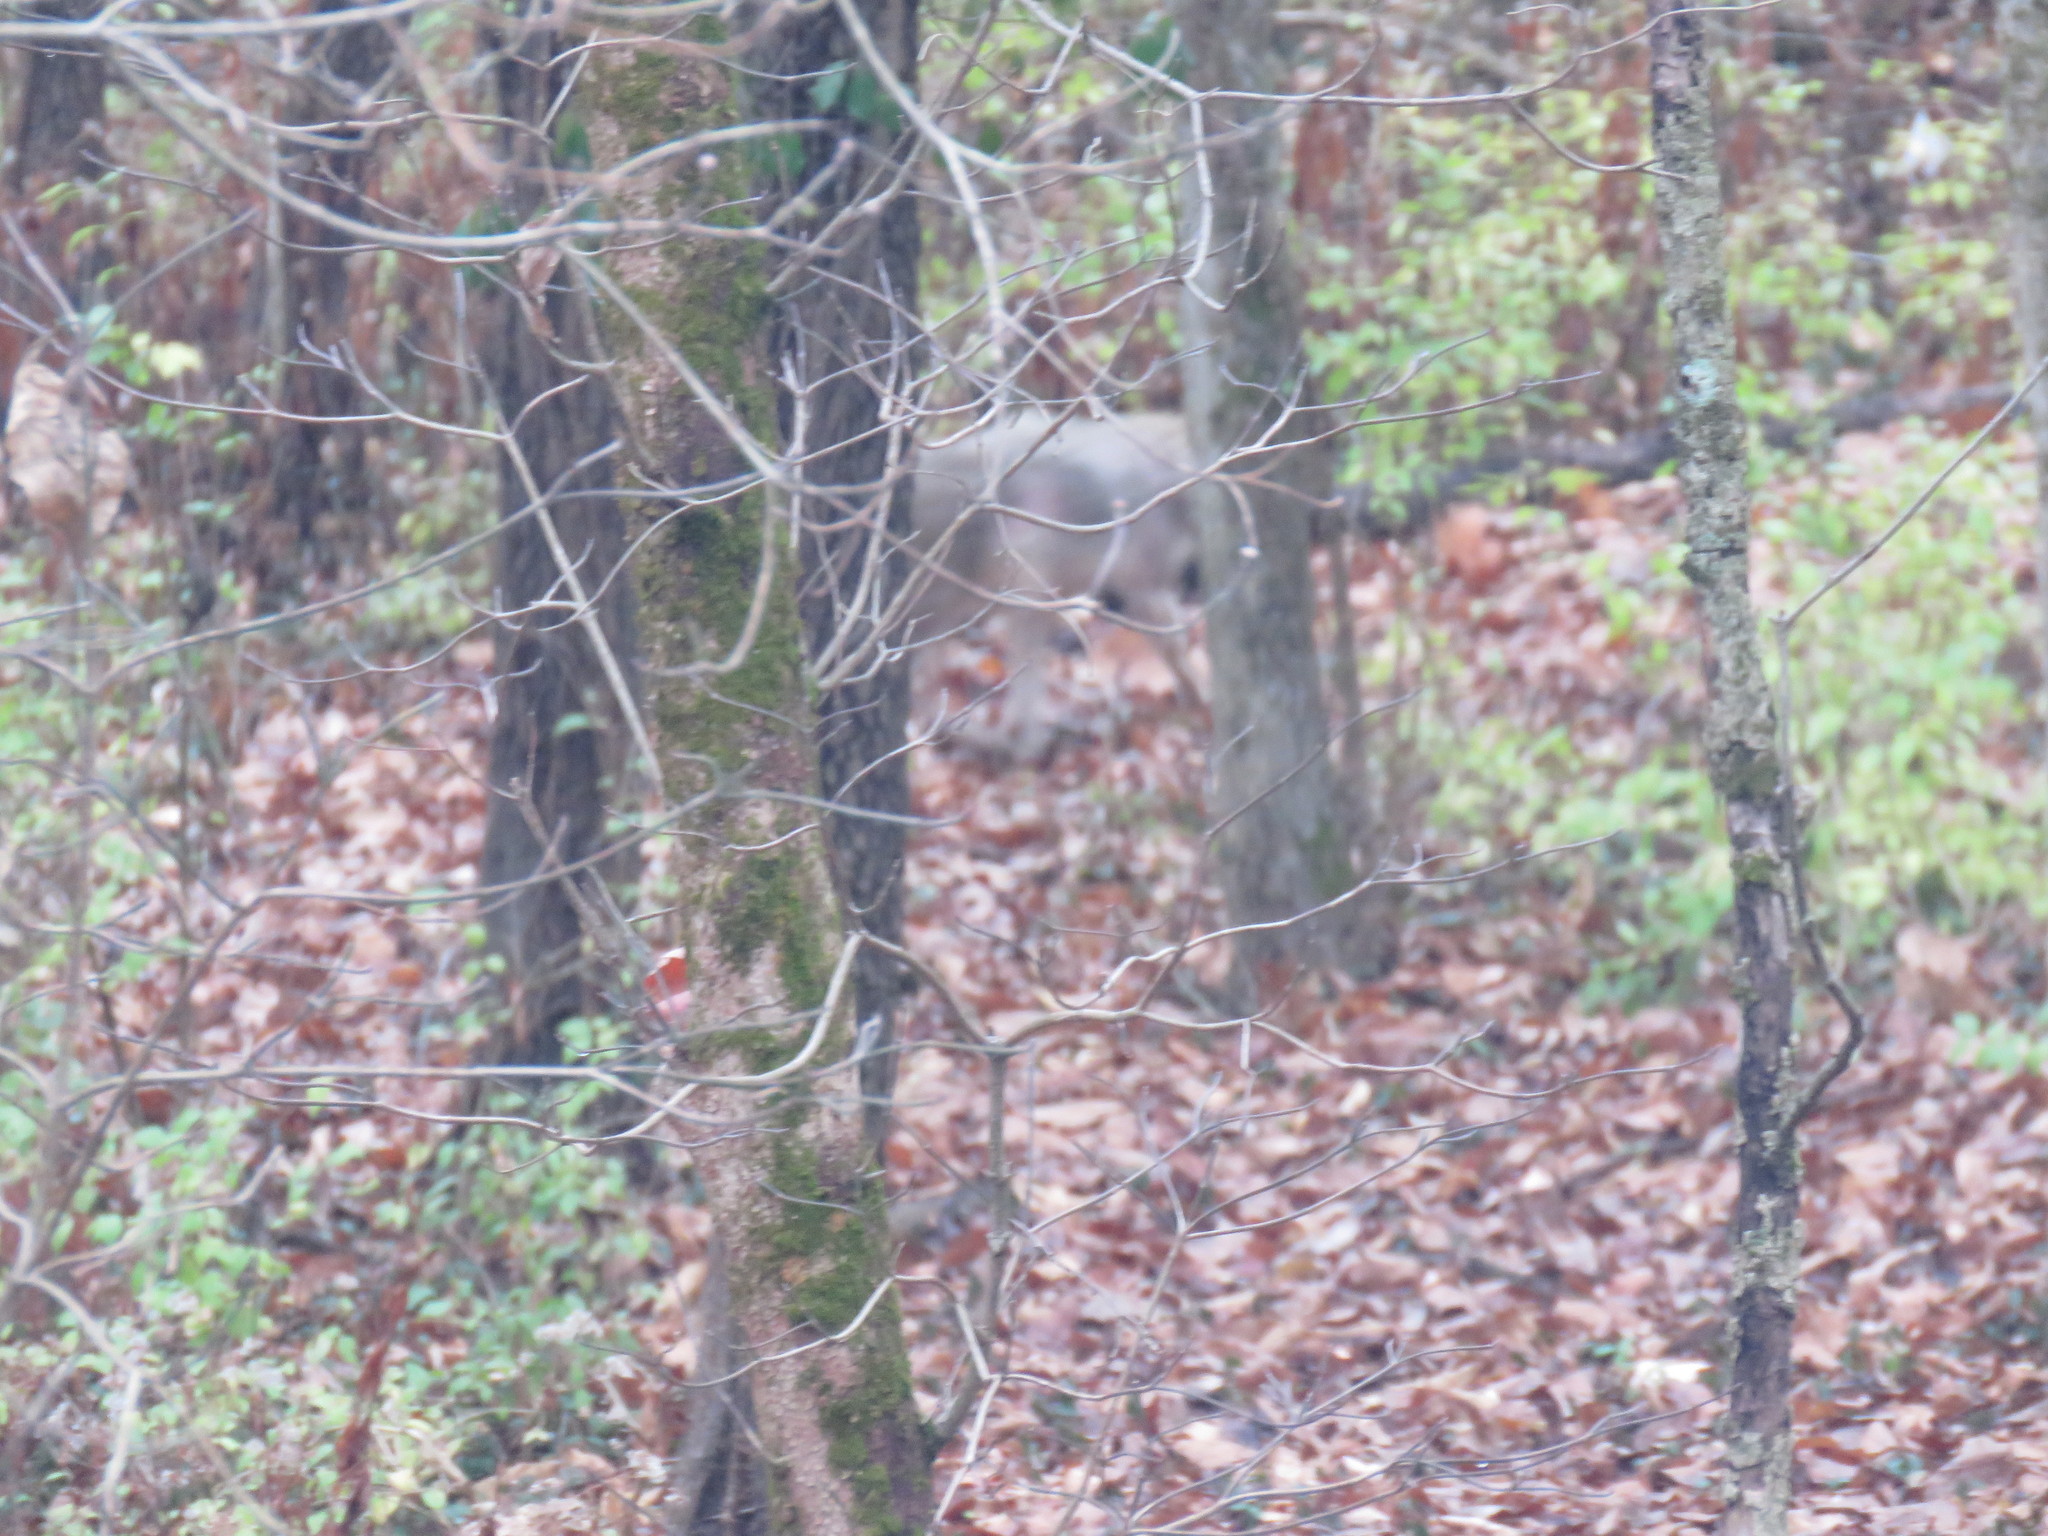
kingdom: Animalia
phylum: Chordata
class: Mammalia
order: Carnivora
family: Canidae
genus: Canis
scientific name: Canis latrans
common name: Coyote
